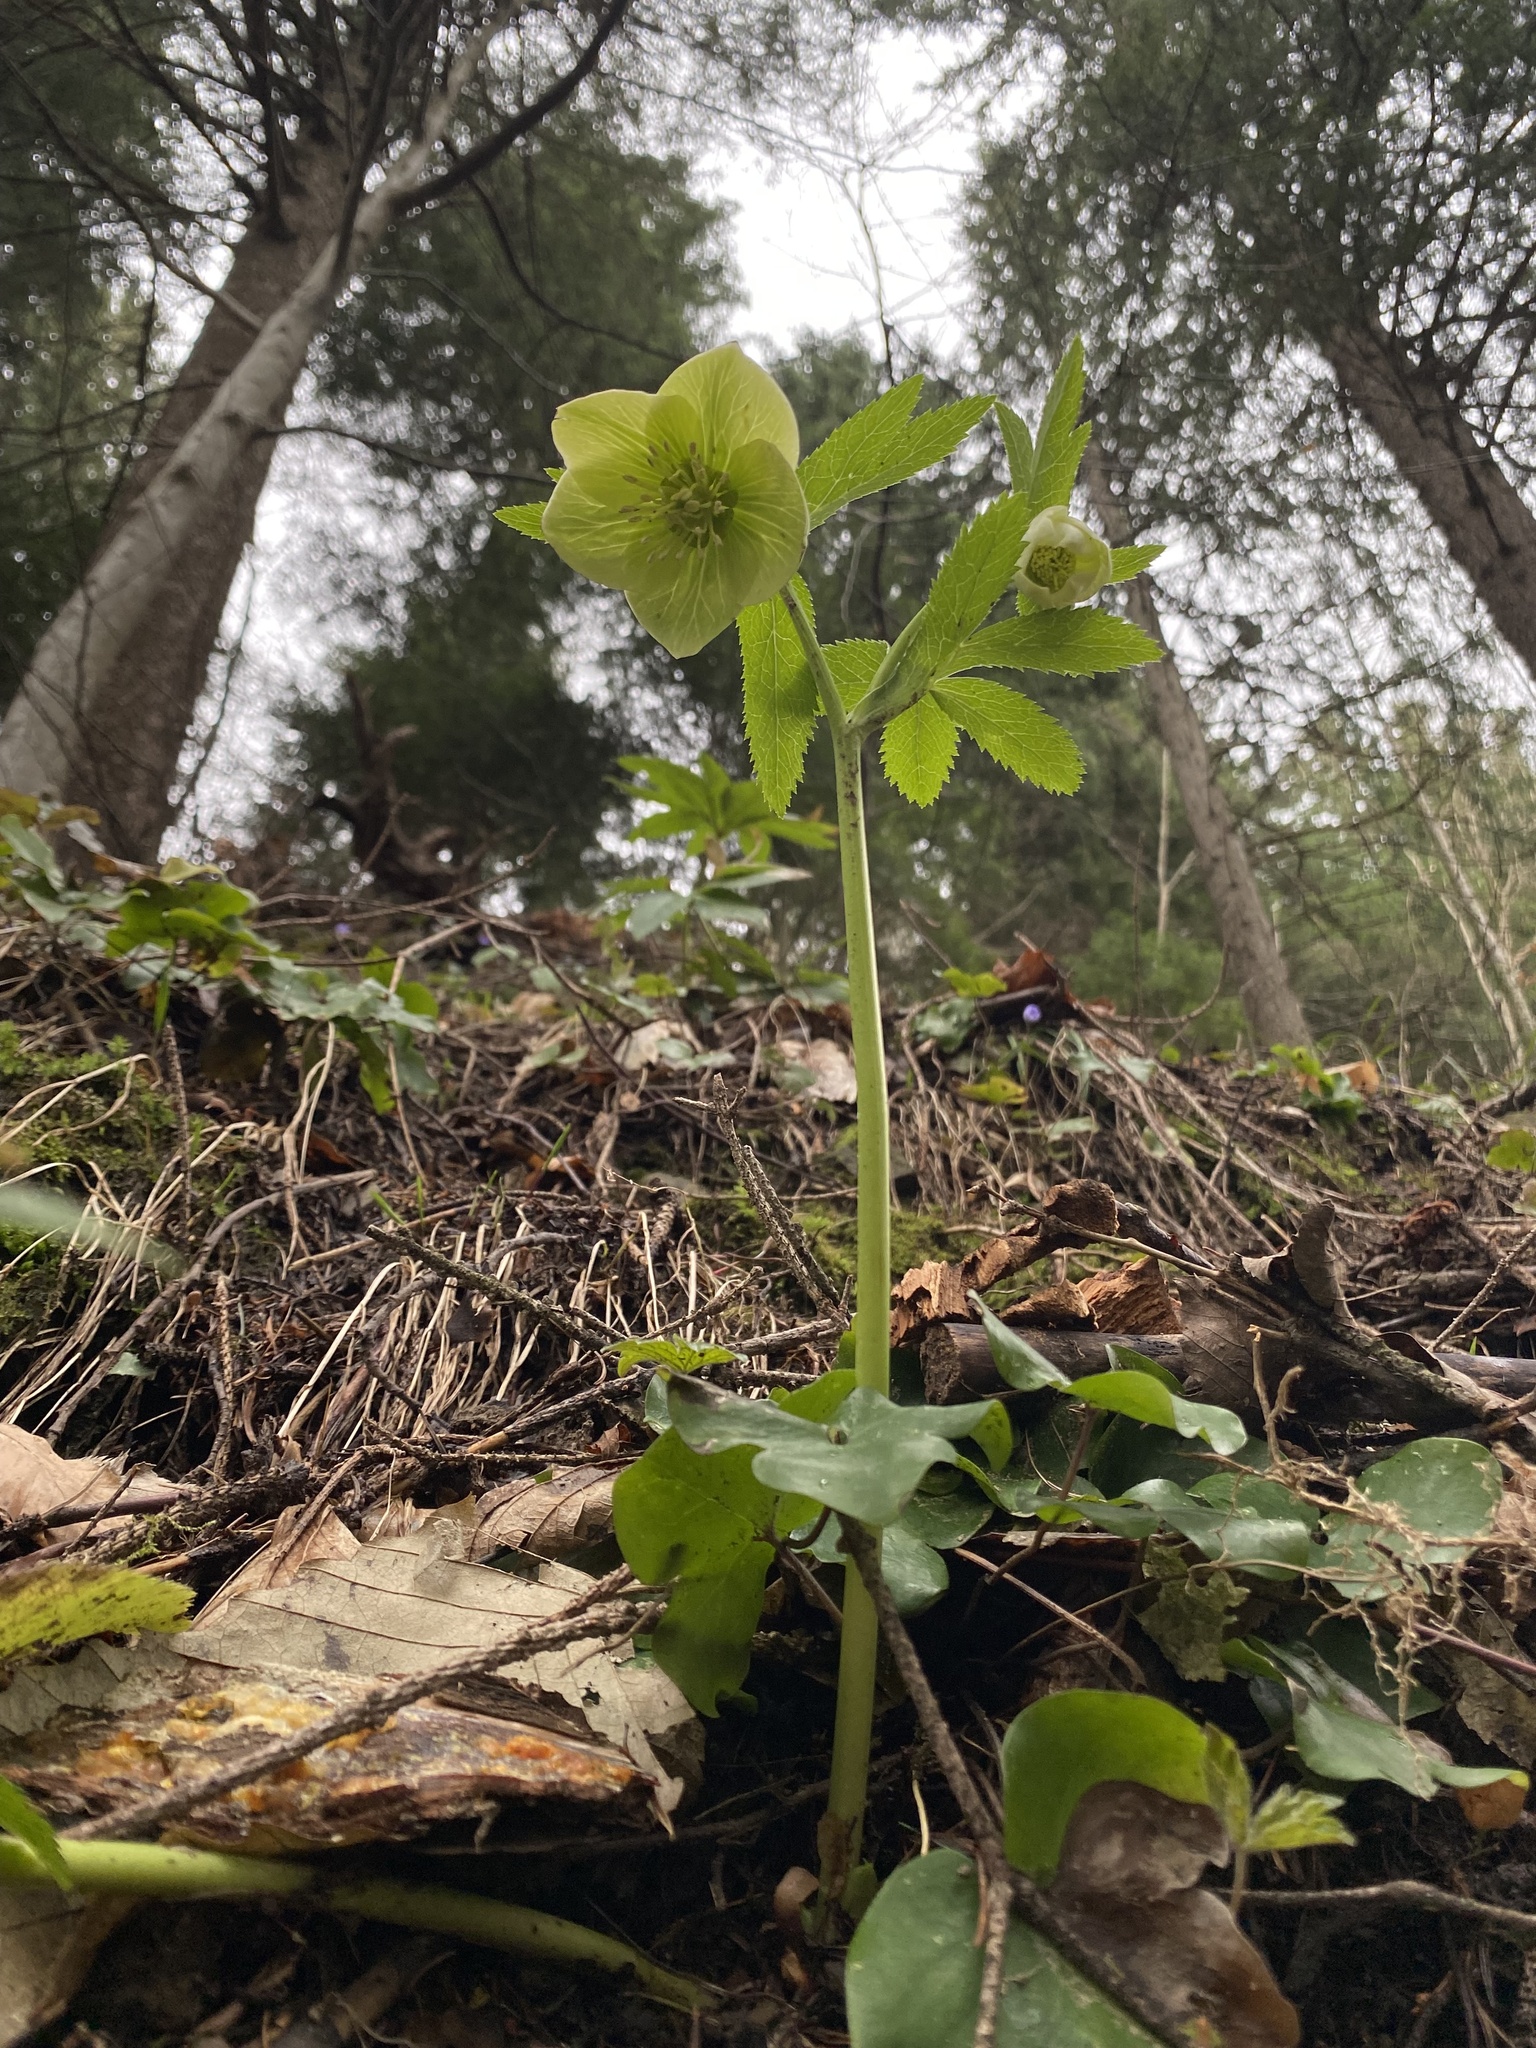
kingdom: Plantae
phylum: Tracheophyta
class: Magnoliopsida
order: Ranunculales
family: Ranunculaceae
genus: Helleborus
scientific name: Helleborus viridis
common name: Green hellebore
